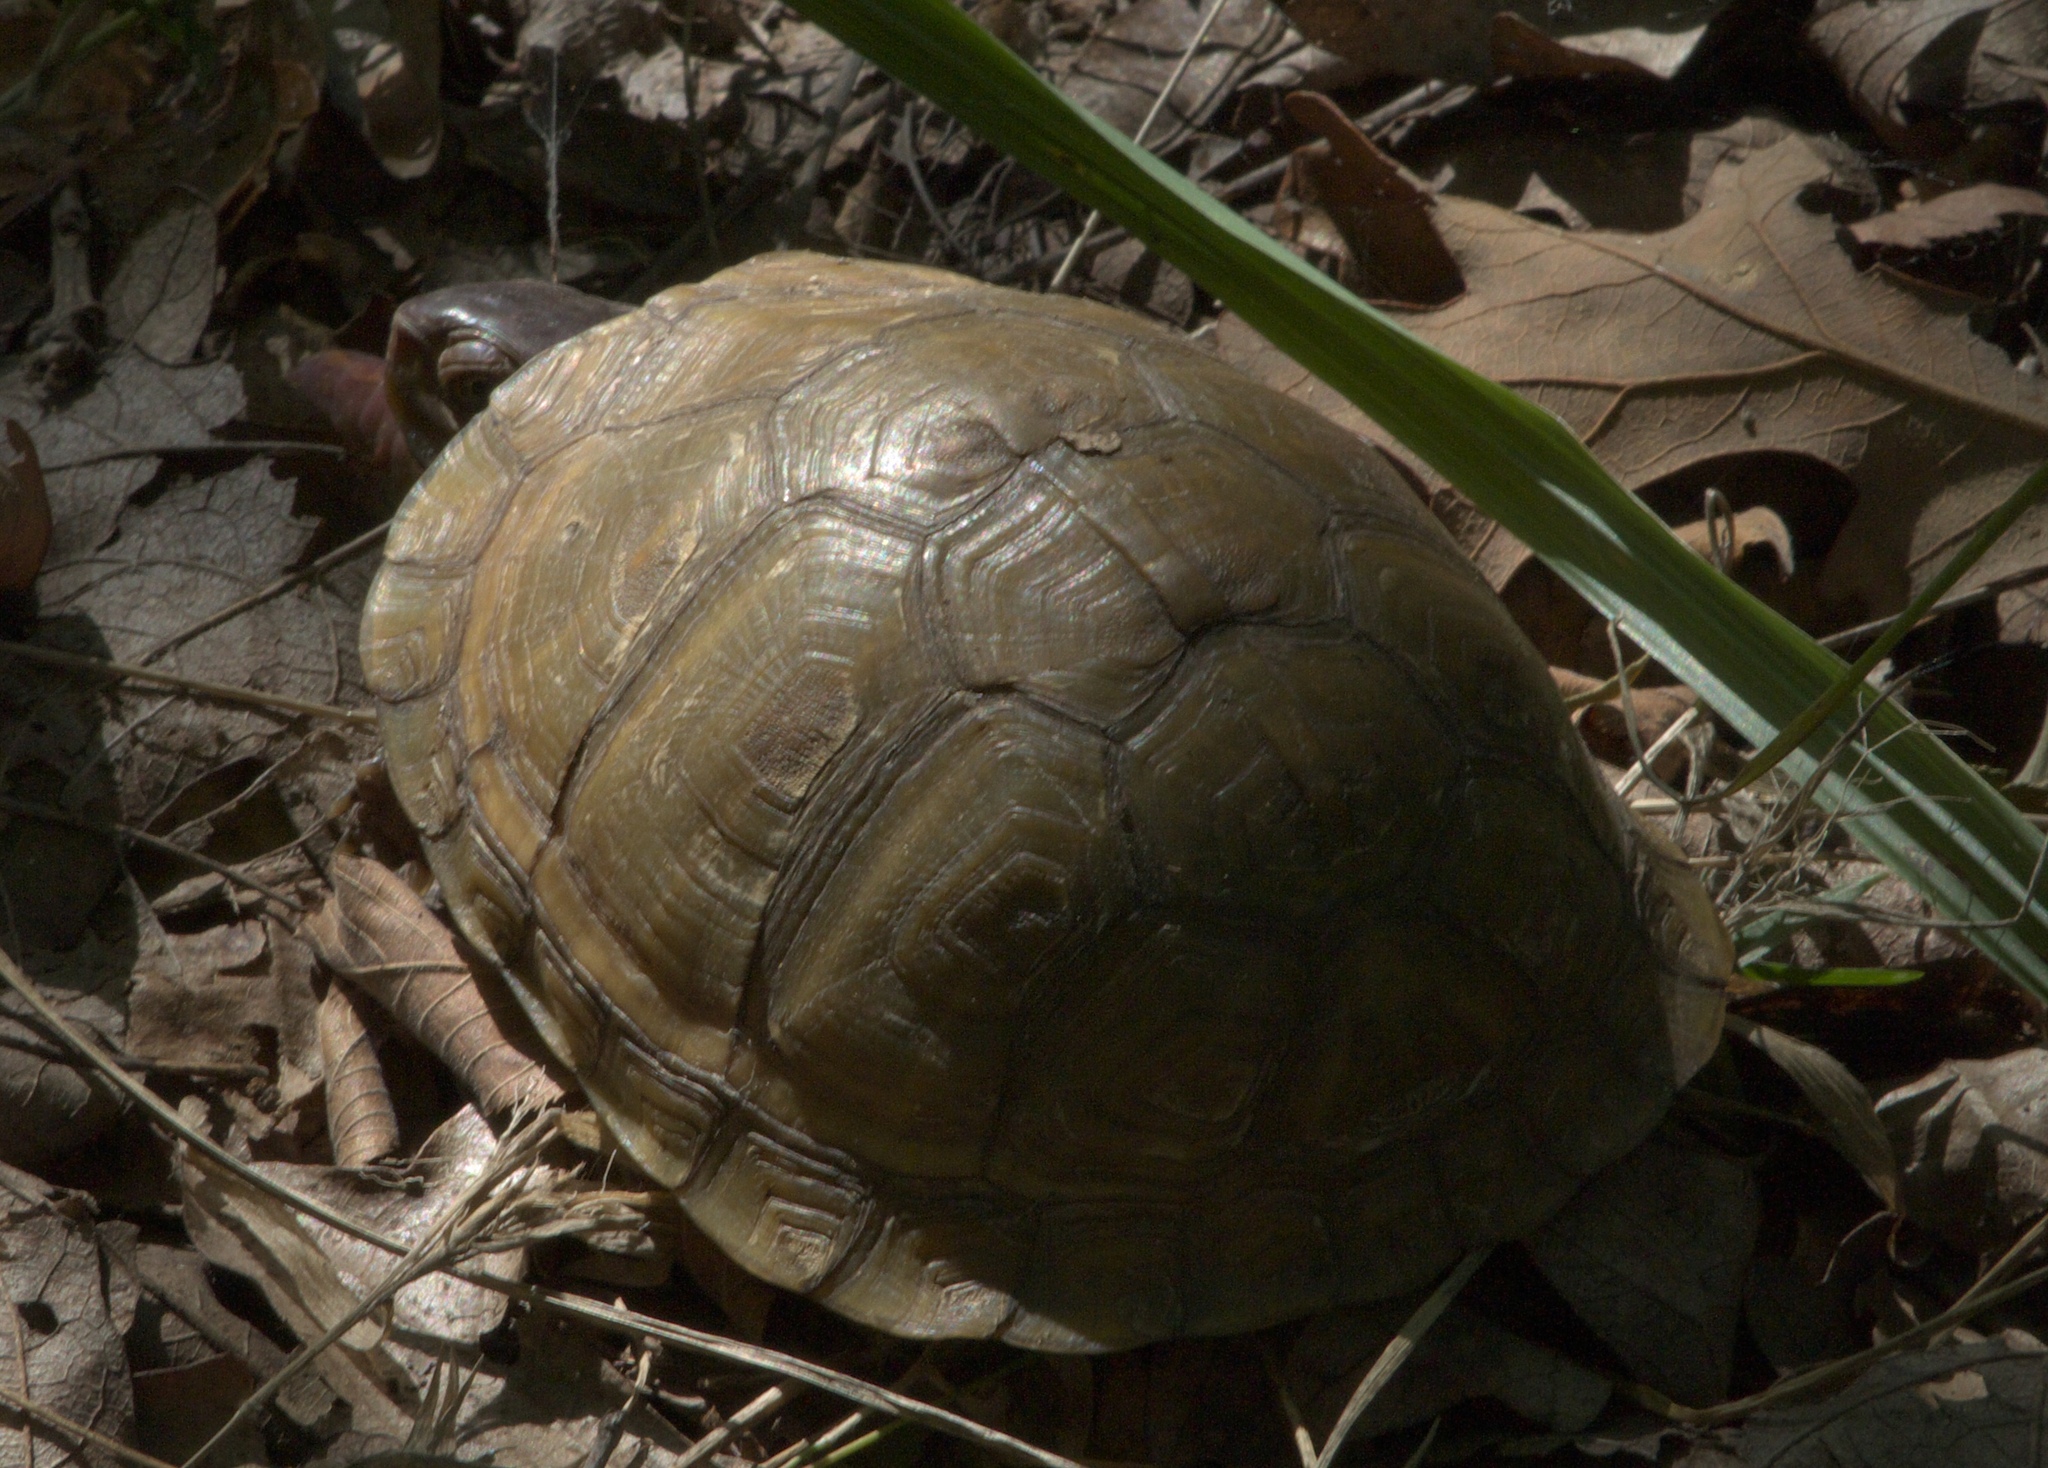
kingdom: Animalia
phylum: Chordata
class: Testudines
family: Emydidae
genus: Terrapene
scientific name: Terrapene carolina
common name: Common box turtle
